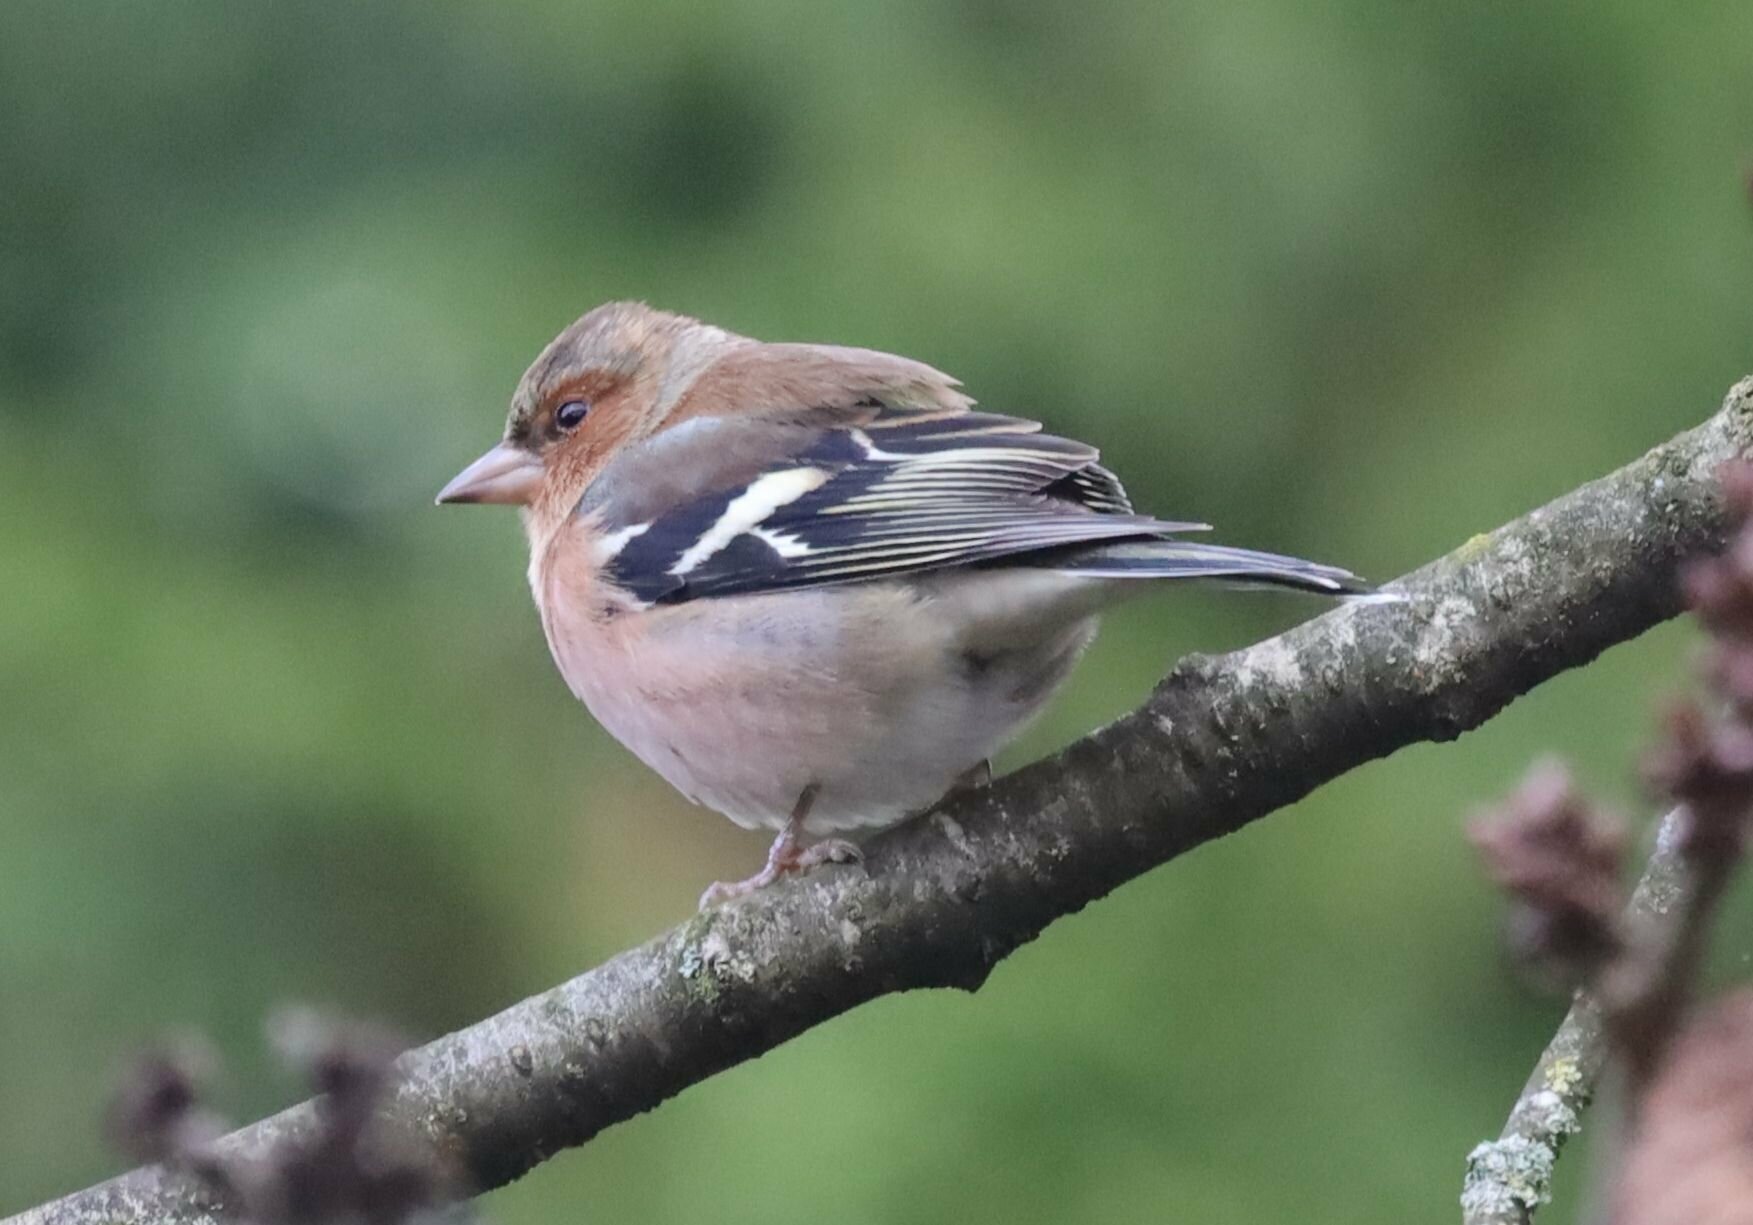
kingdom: Animalia
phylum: Chordata
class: Aves
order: Passeriformes
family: Fringillidae
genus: Fringilla
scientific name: Fringilla coelebs
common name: Common chaffinch
